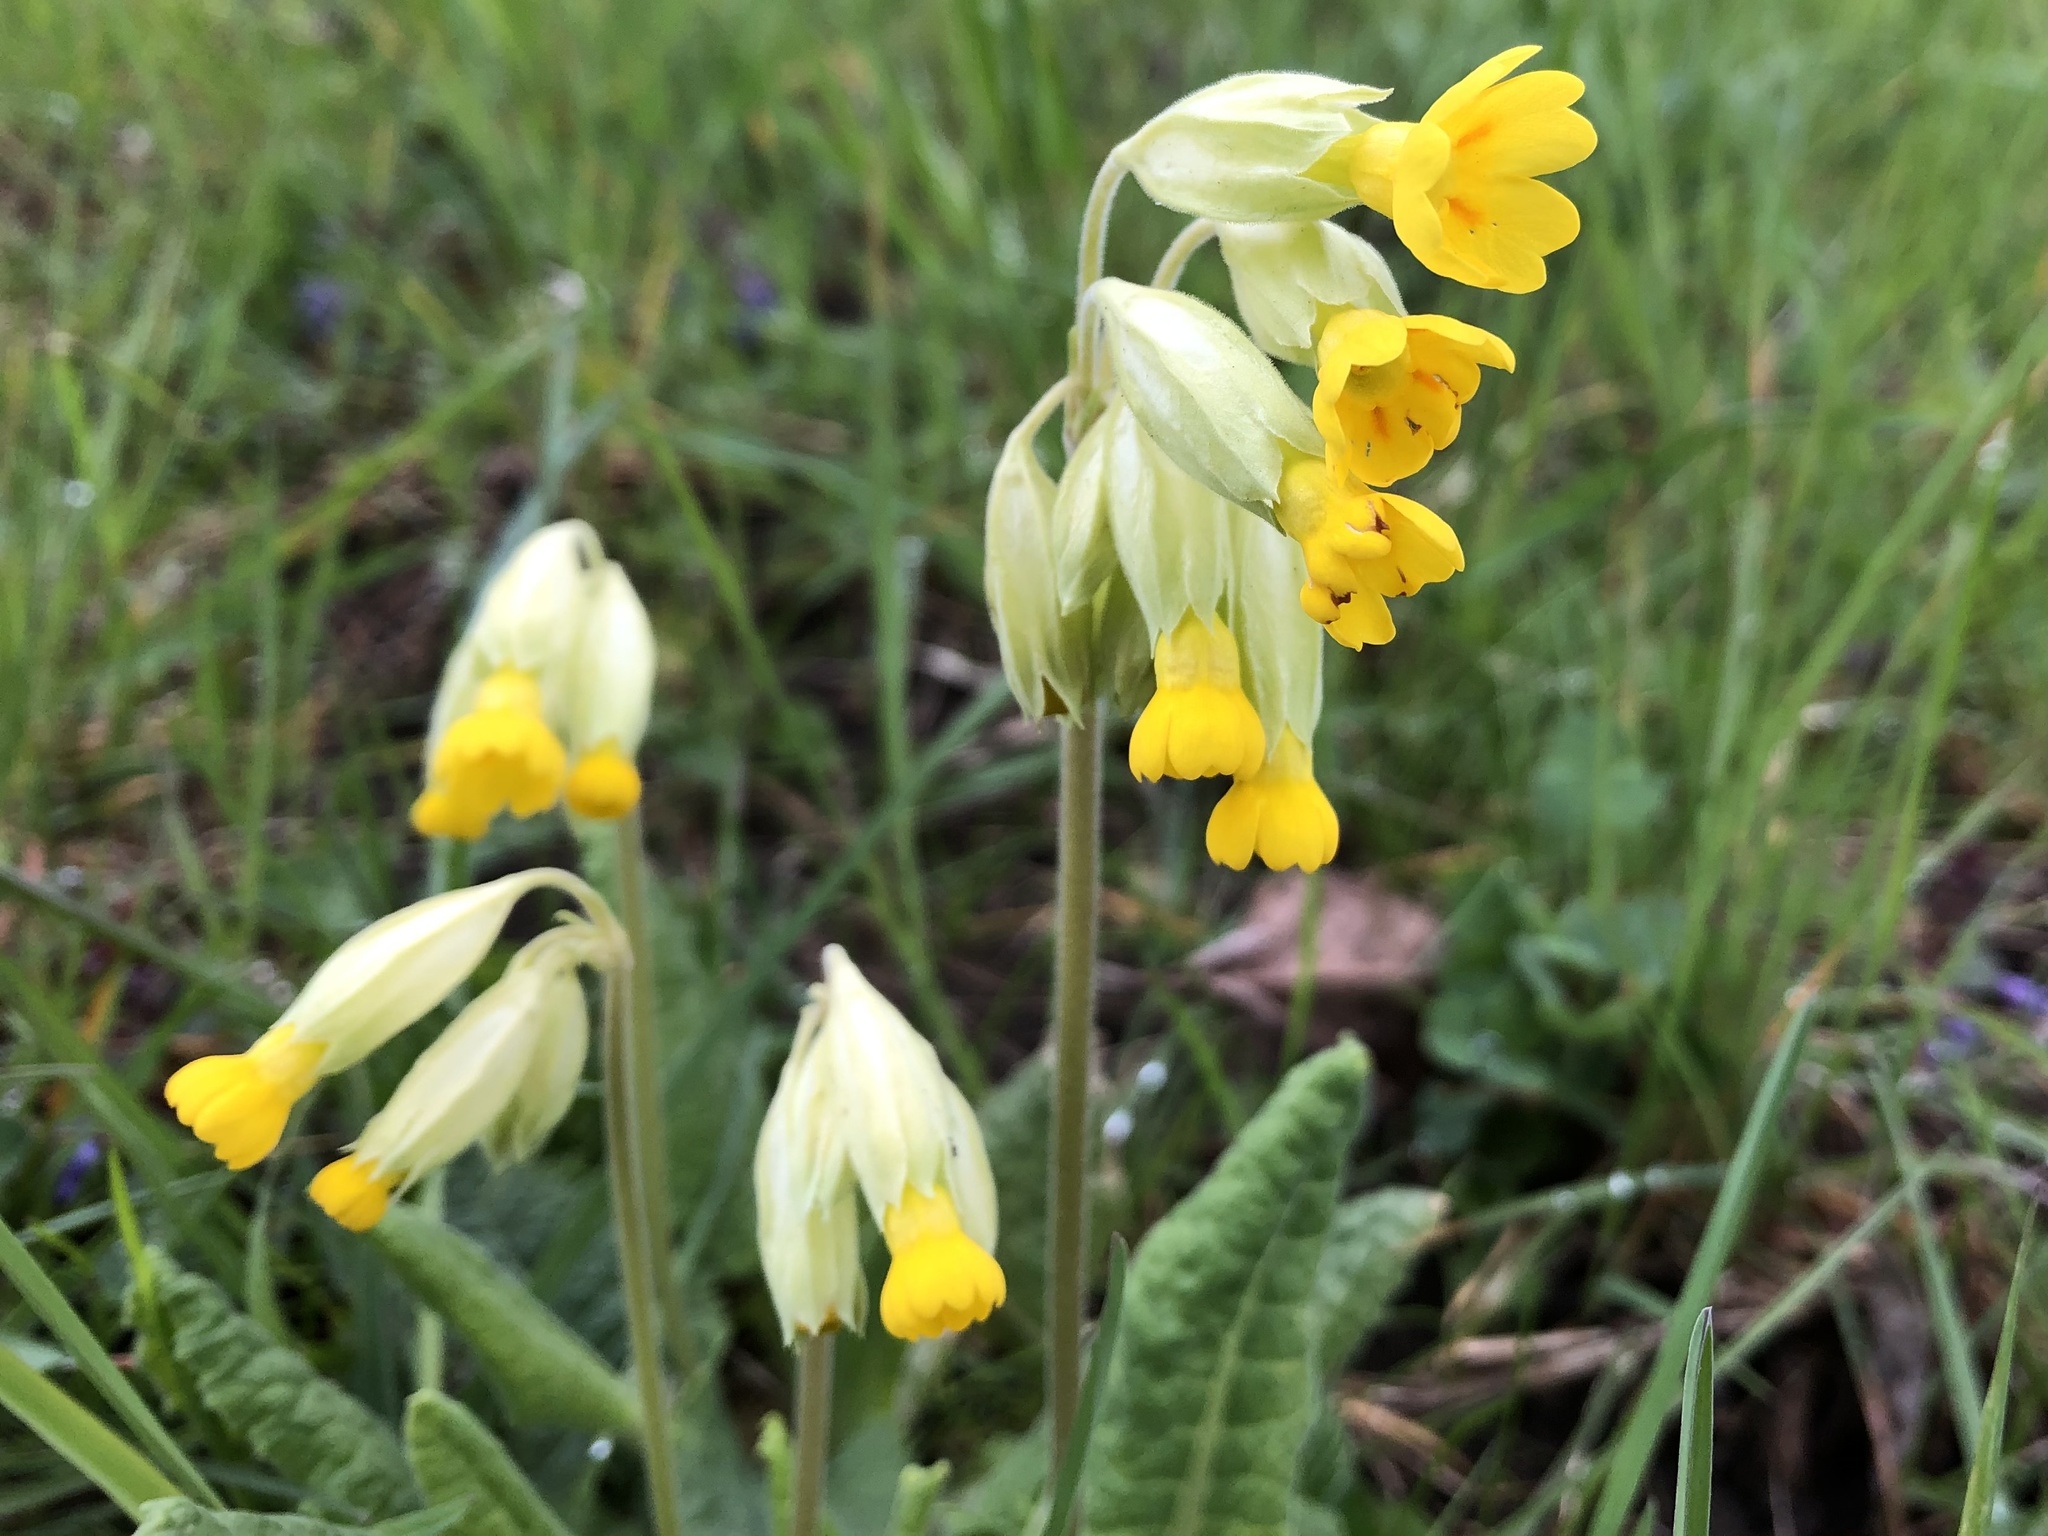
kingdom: Plantae
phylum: Tracheophyta
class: Magnoliopsida
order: Ericales
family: Primulaceae
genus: Primula
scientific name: Primula veris
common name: Cowslip
